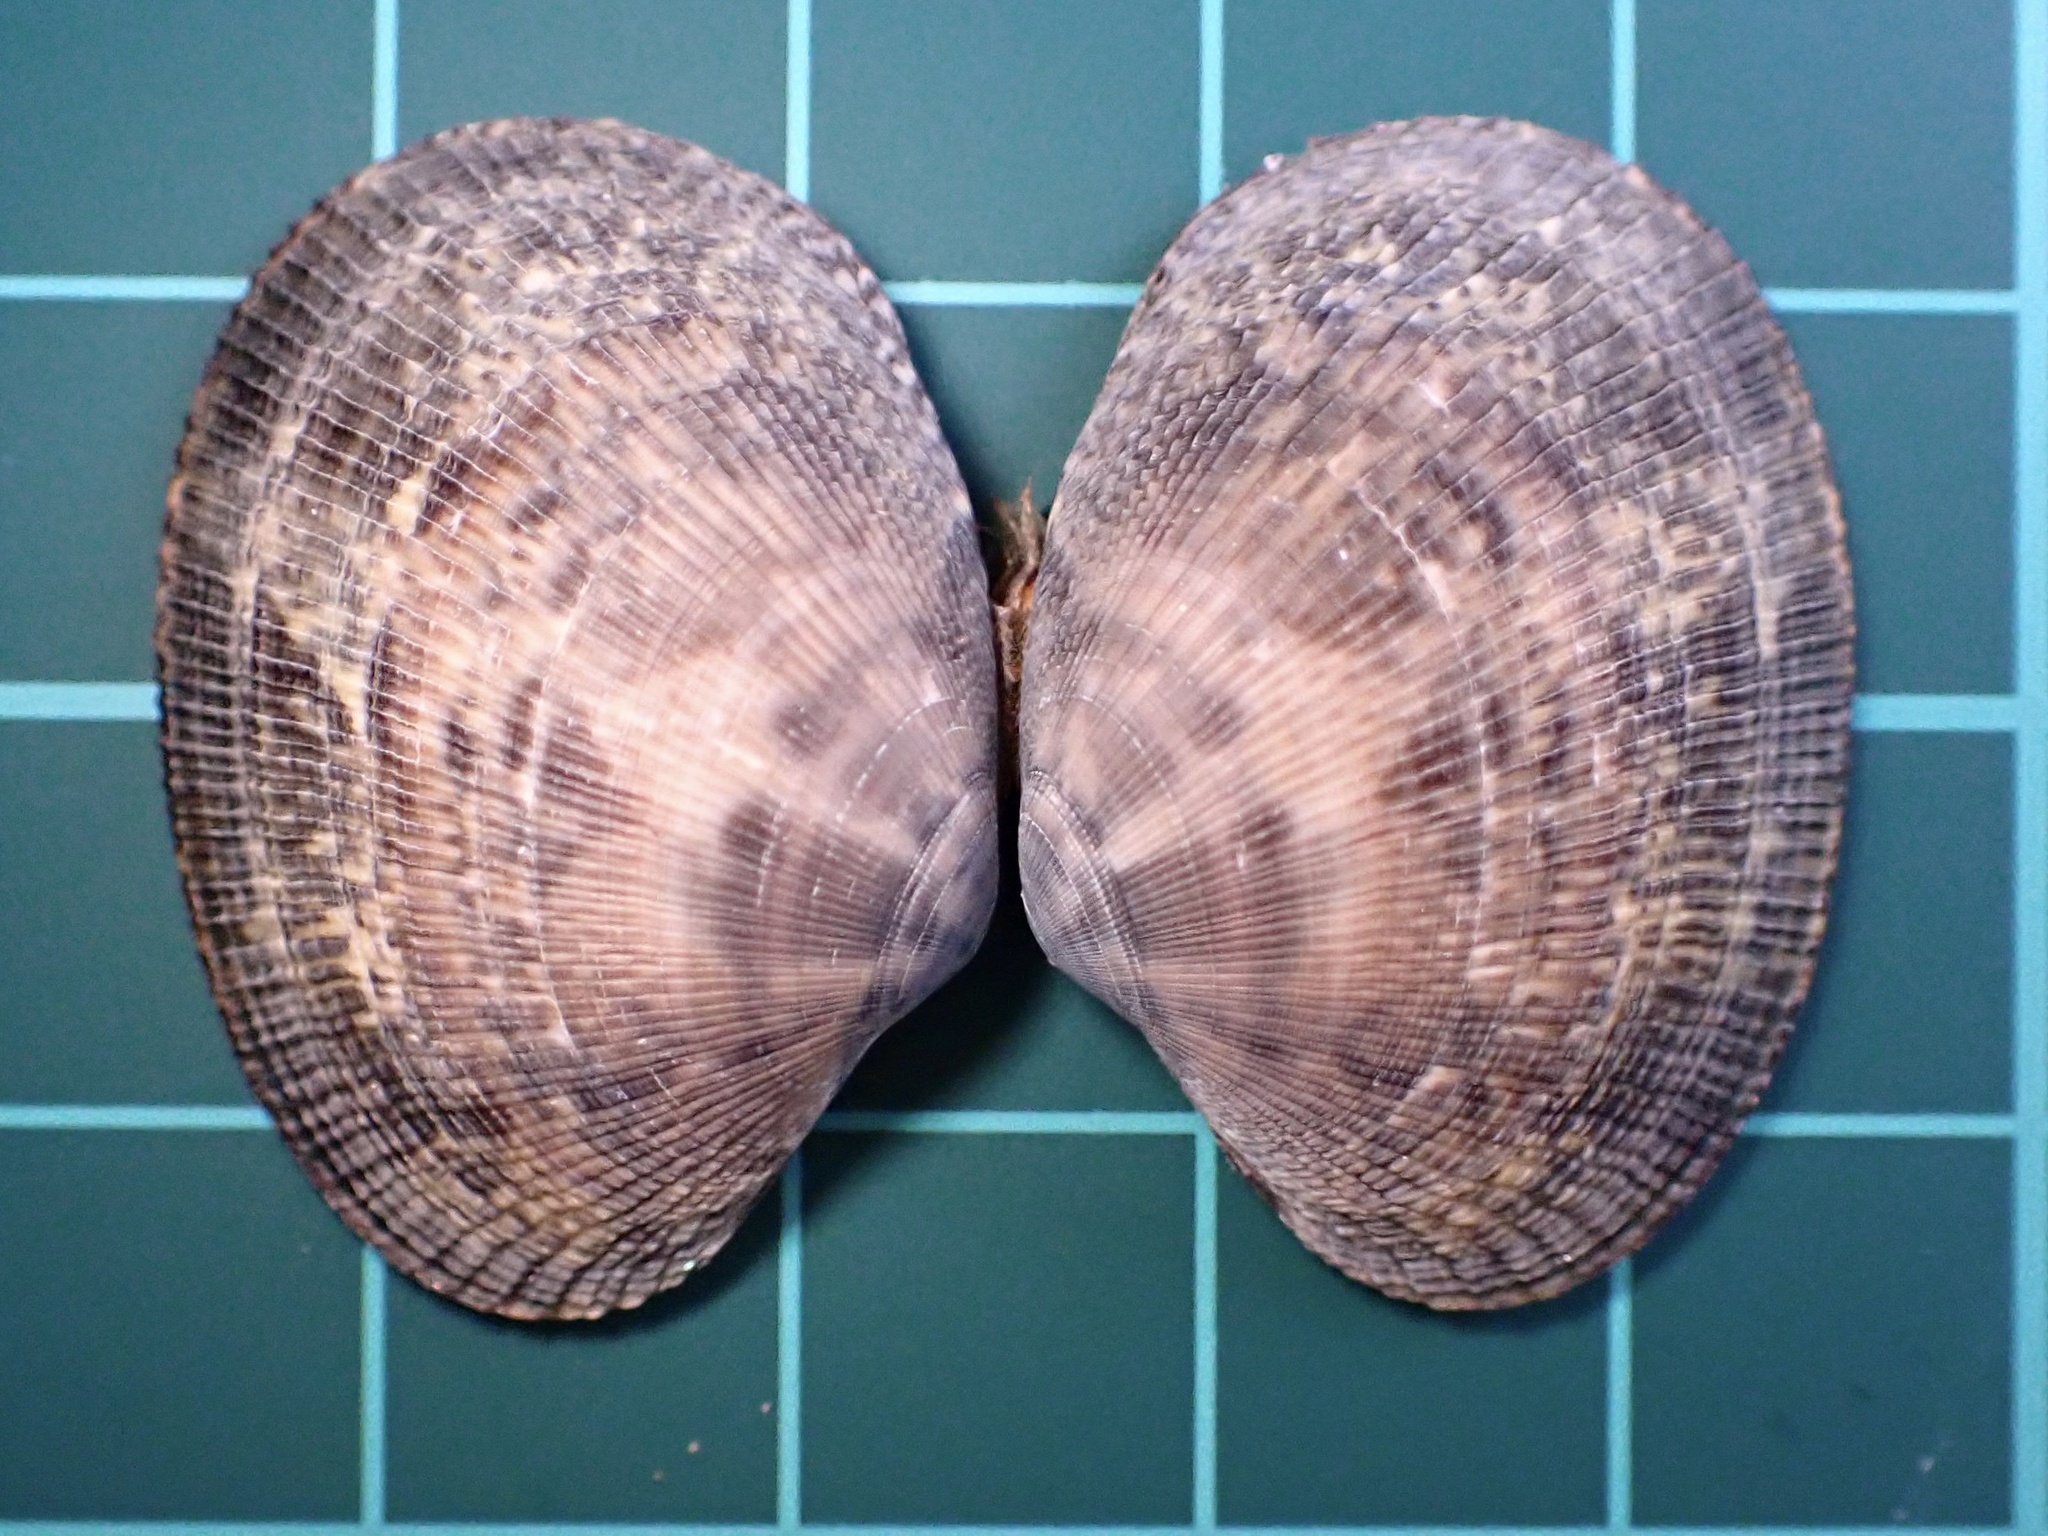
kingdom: Animalia
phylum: Mollusca
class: Bivalvia
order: Venerida
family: Veneridae
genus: Ruditapes
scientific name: Ruditapes philippinarum
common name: Manila clam
